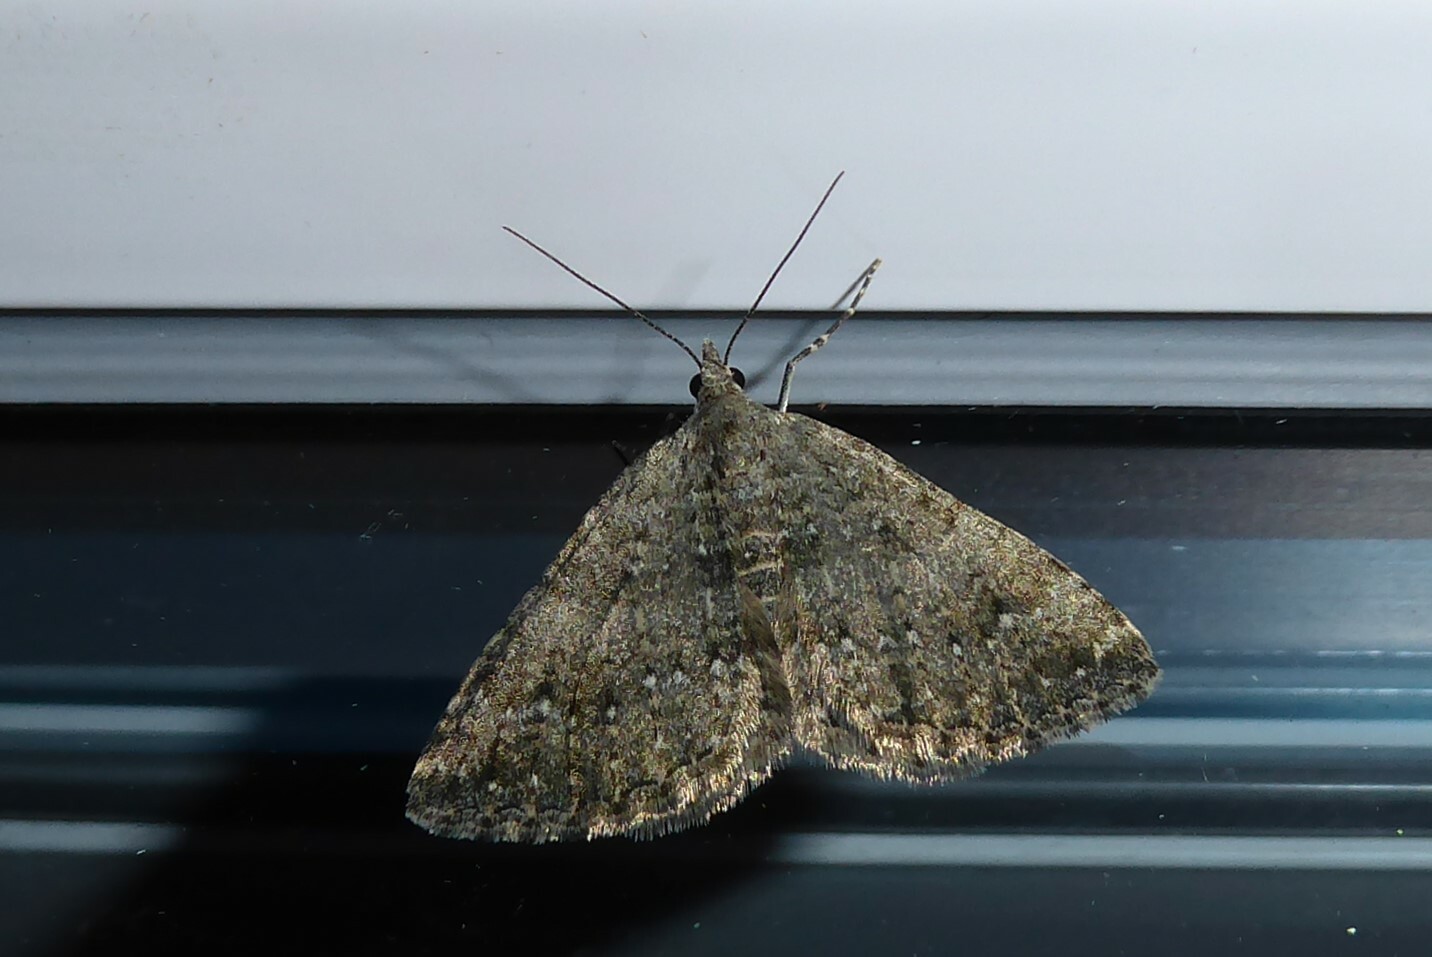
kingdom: Animalia
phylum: Arthropoda
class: Insecta
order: Lepidoptera
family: Geometridae
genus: Helastia
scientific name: Helastia corcularia
